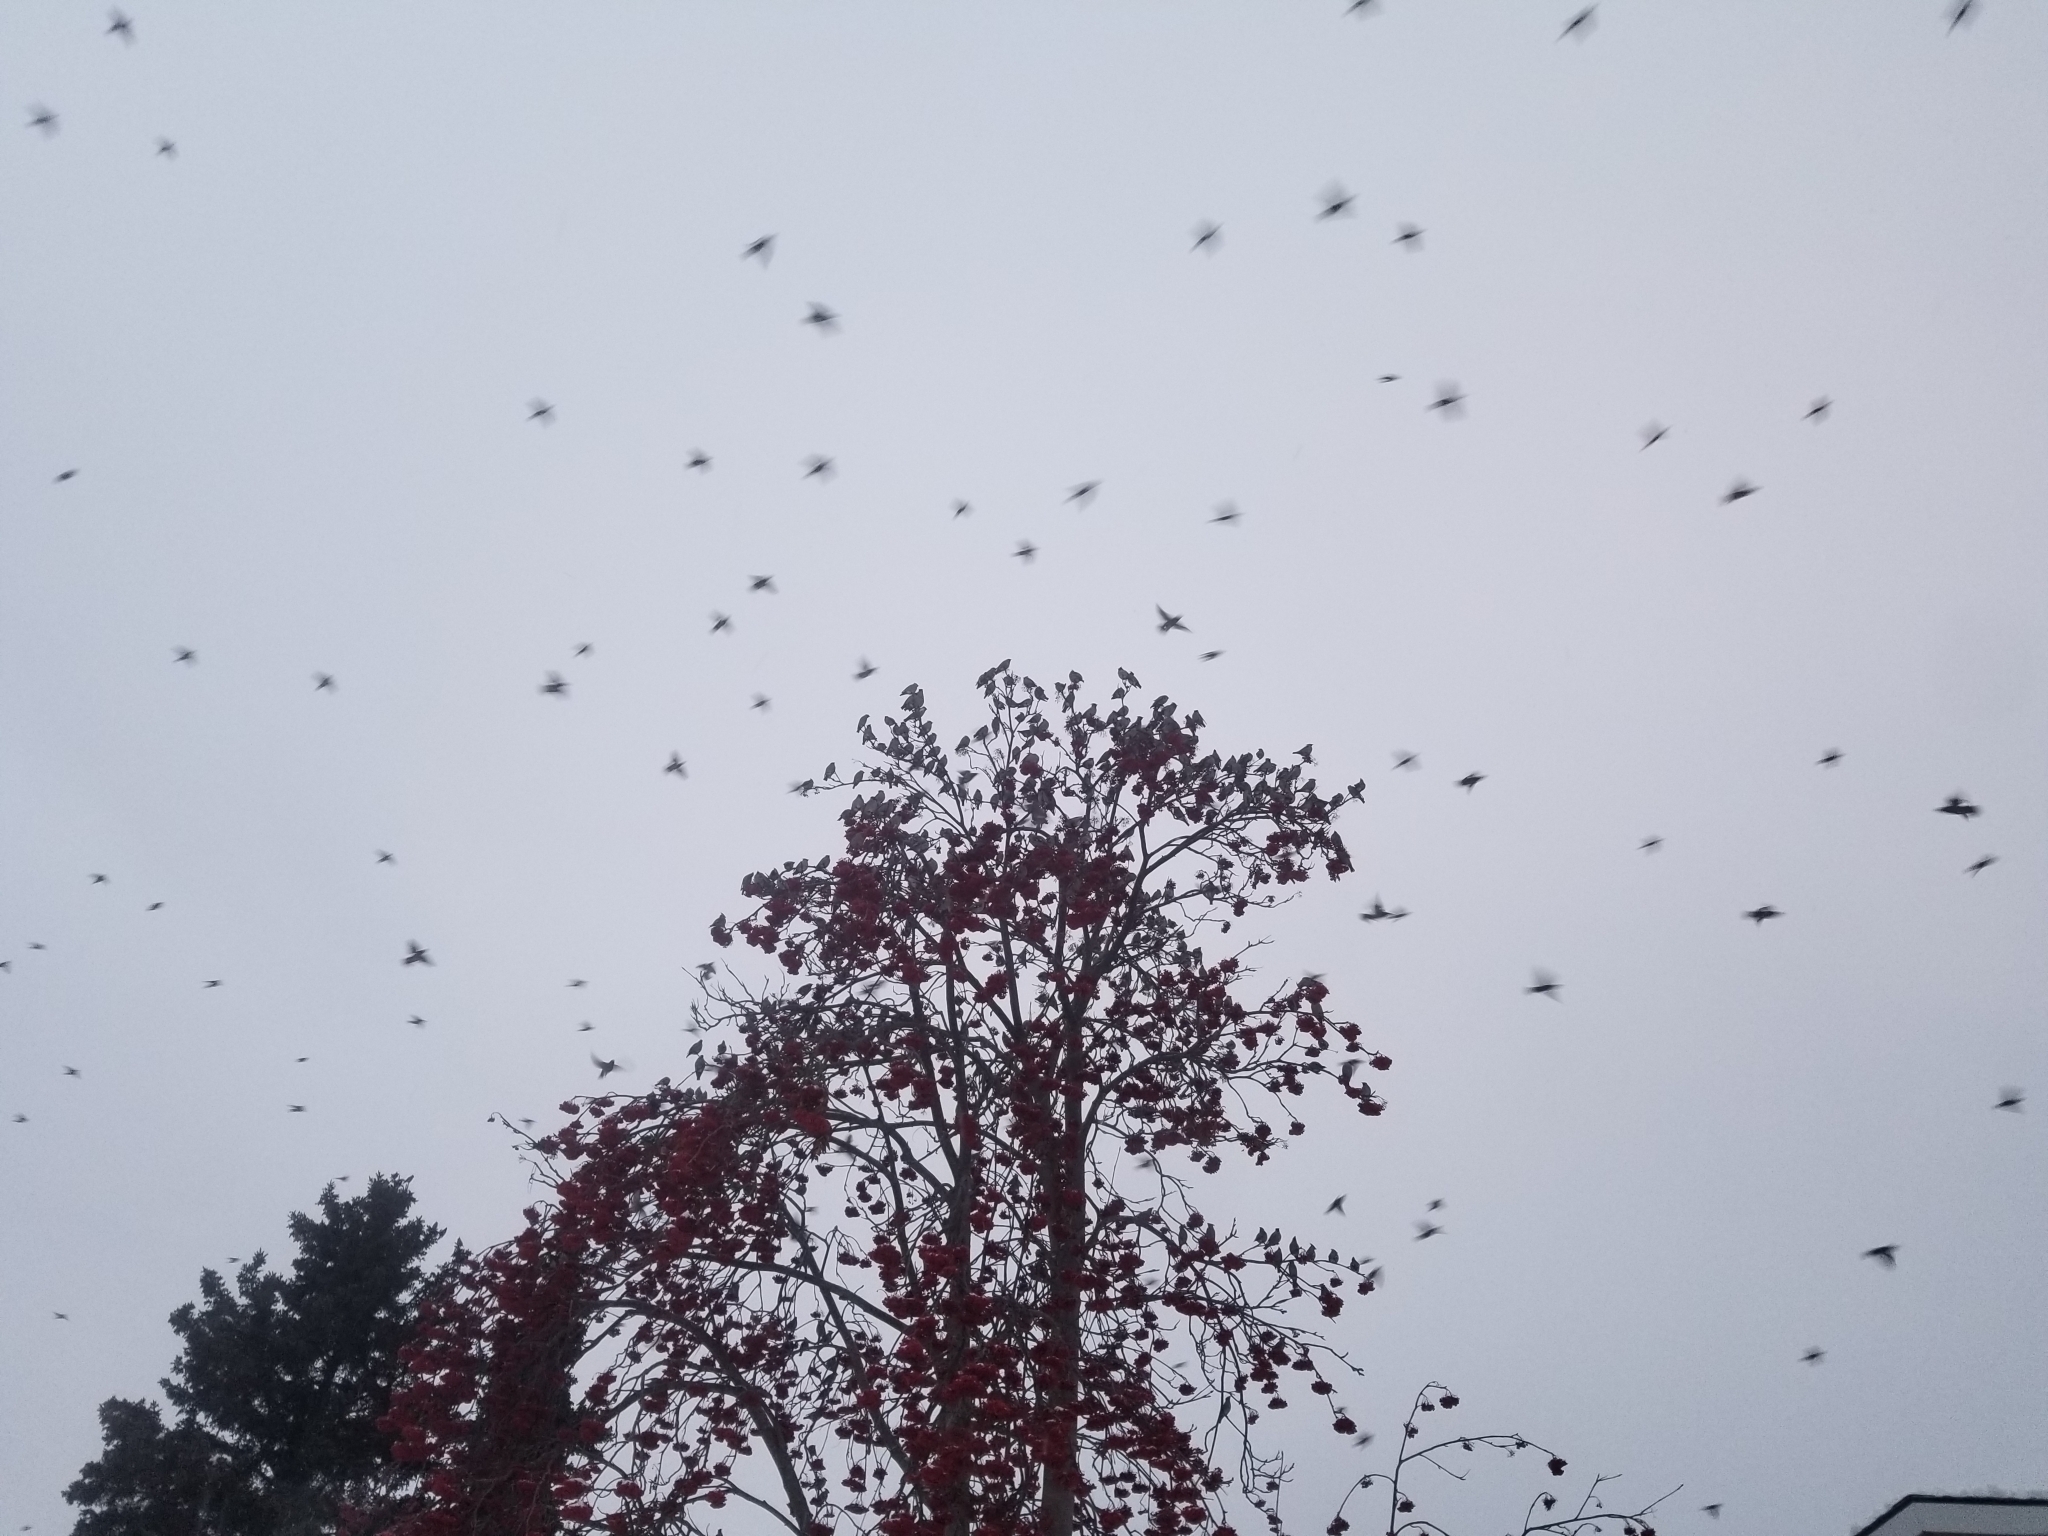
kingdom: Animalia
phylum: Chordata
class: Aves
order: Passeriformes
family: Bombycillidae
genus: Bombycilla
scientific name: Bombycilla garrulus
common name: Bohemian waxwing
